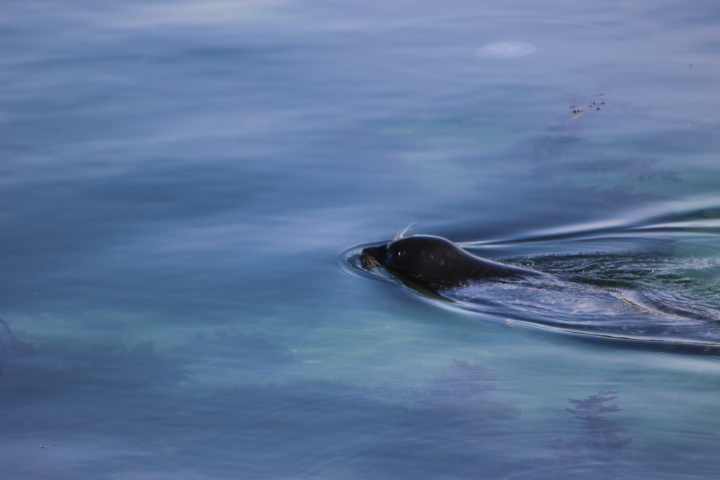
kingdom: Animalia
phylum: Chordata
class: Mammalia
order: Carnivora
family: Phocidae
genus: Phoca
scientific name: Phoca vitulina
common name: Harbor seal
